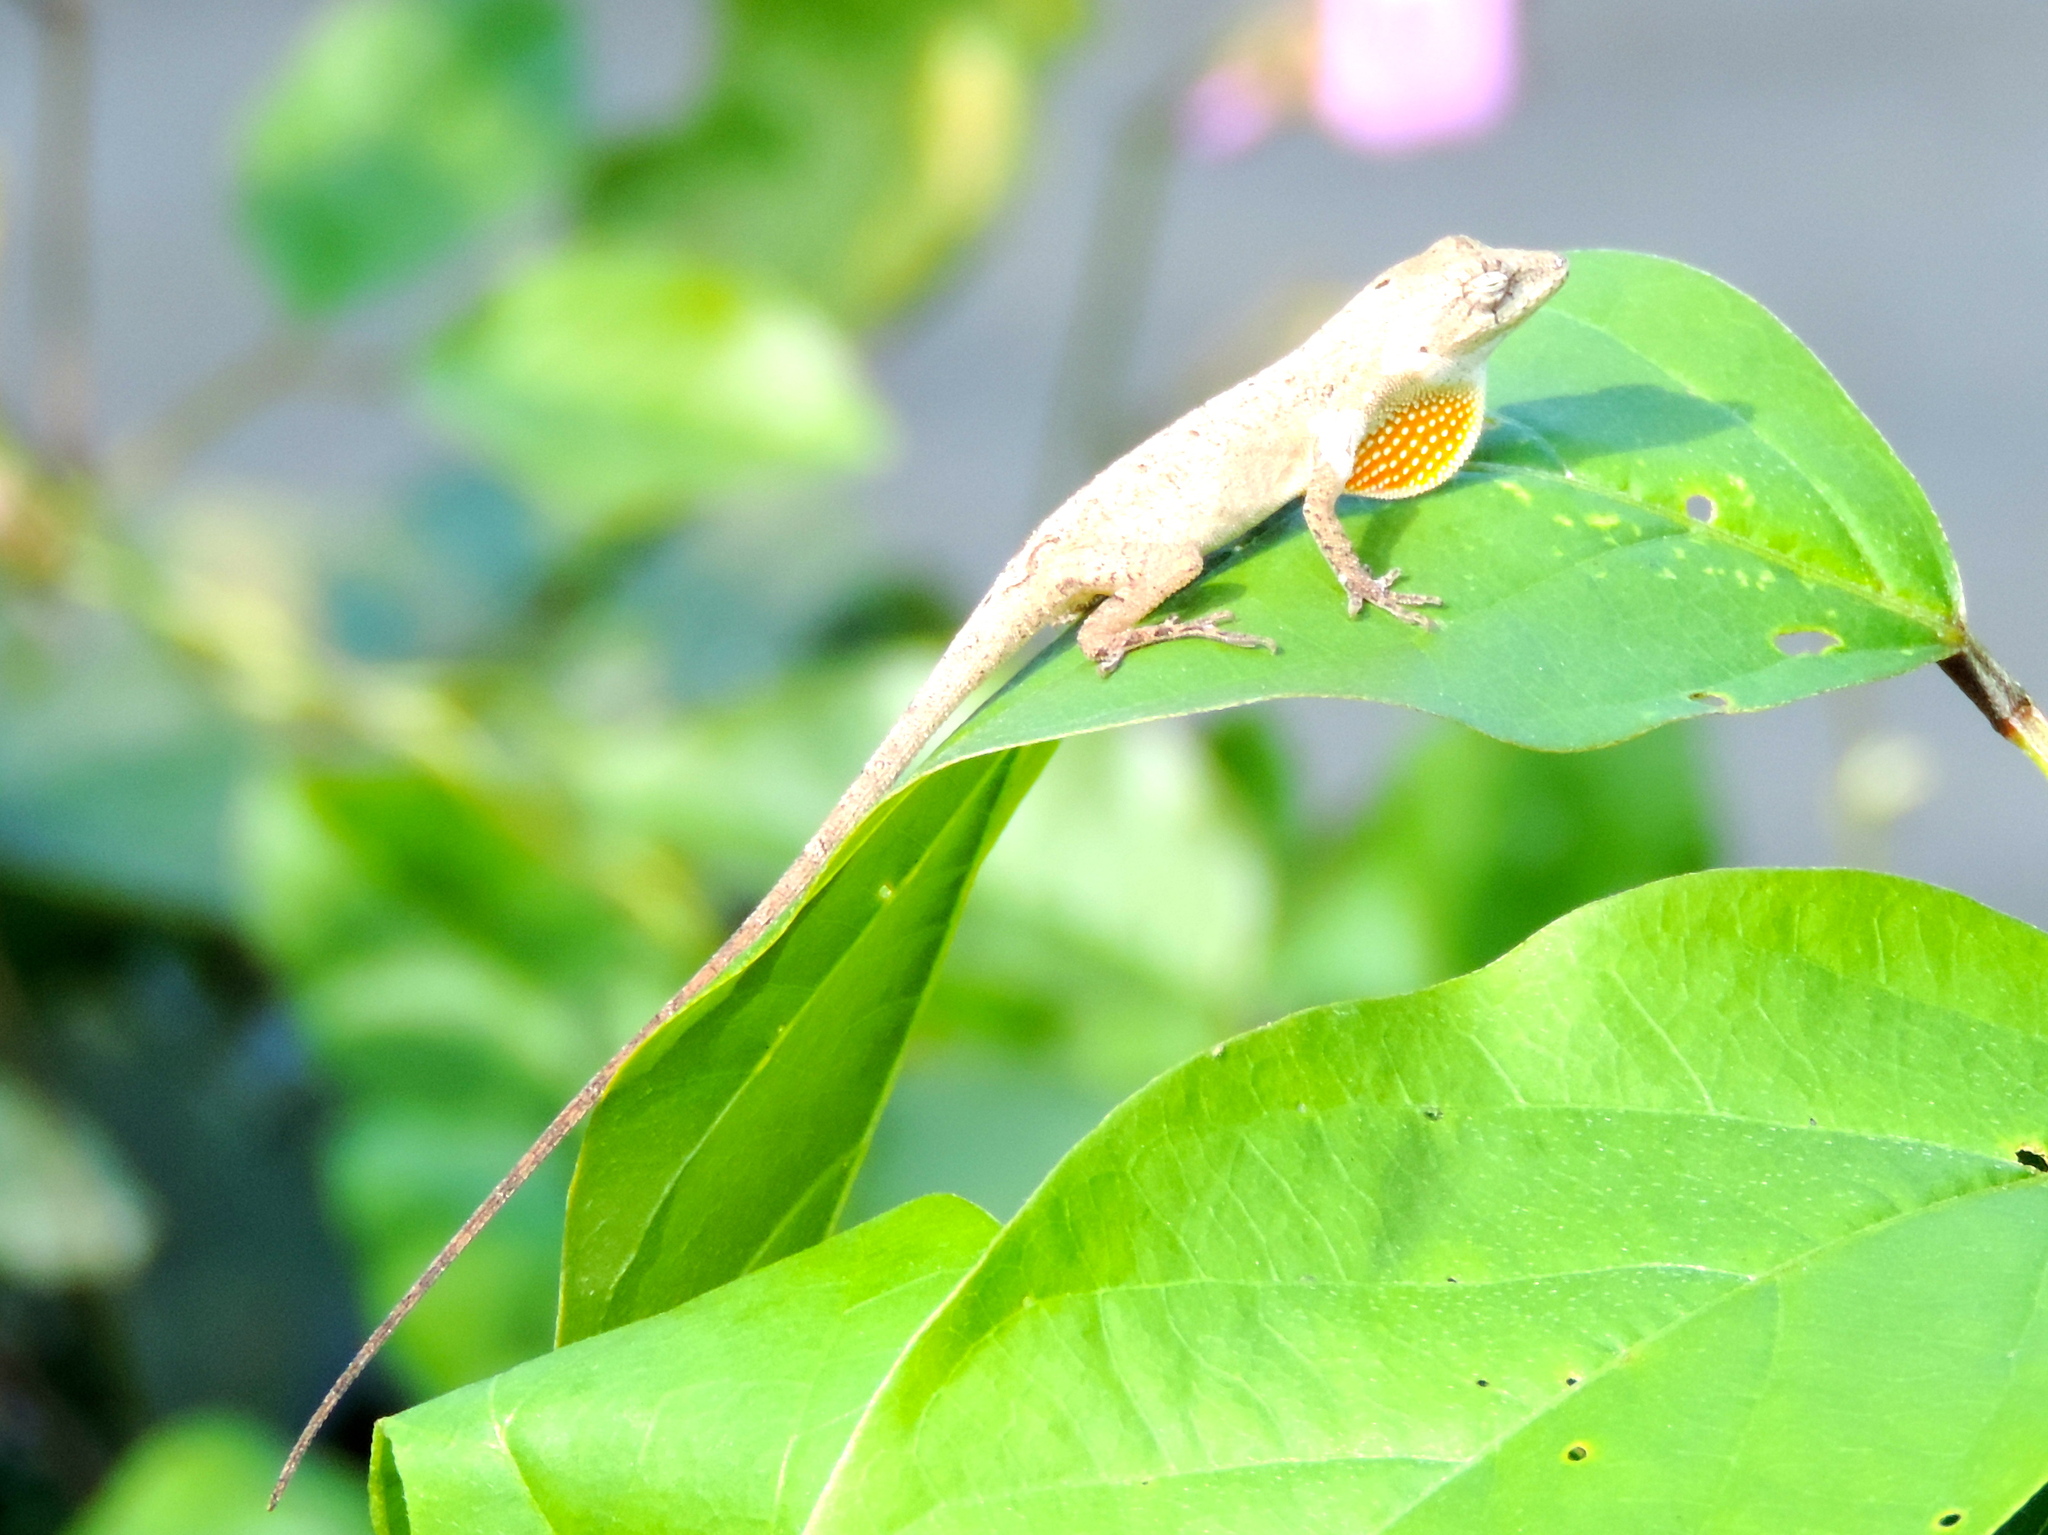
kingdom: Animalia
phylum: Chordata
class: Squamata
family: Dactyloidae
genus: Anolis
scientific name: Anolis nebulosus
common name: Clouded anole
